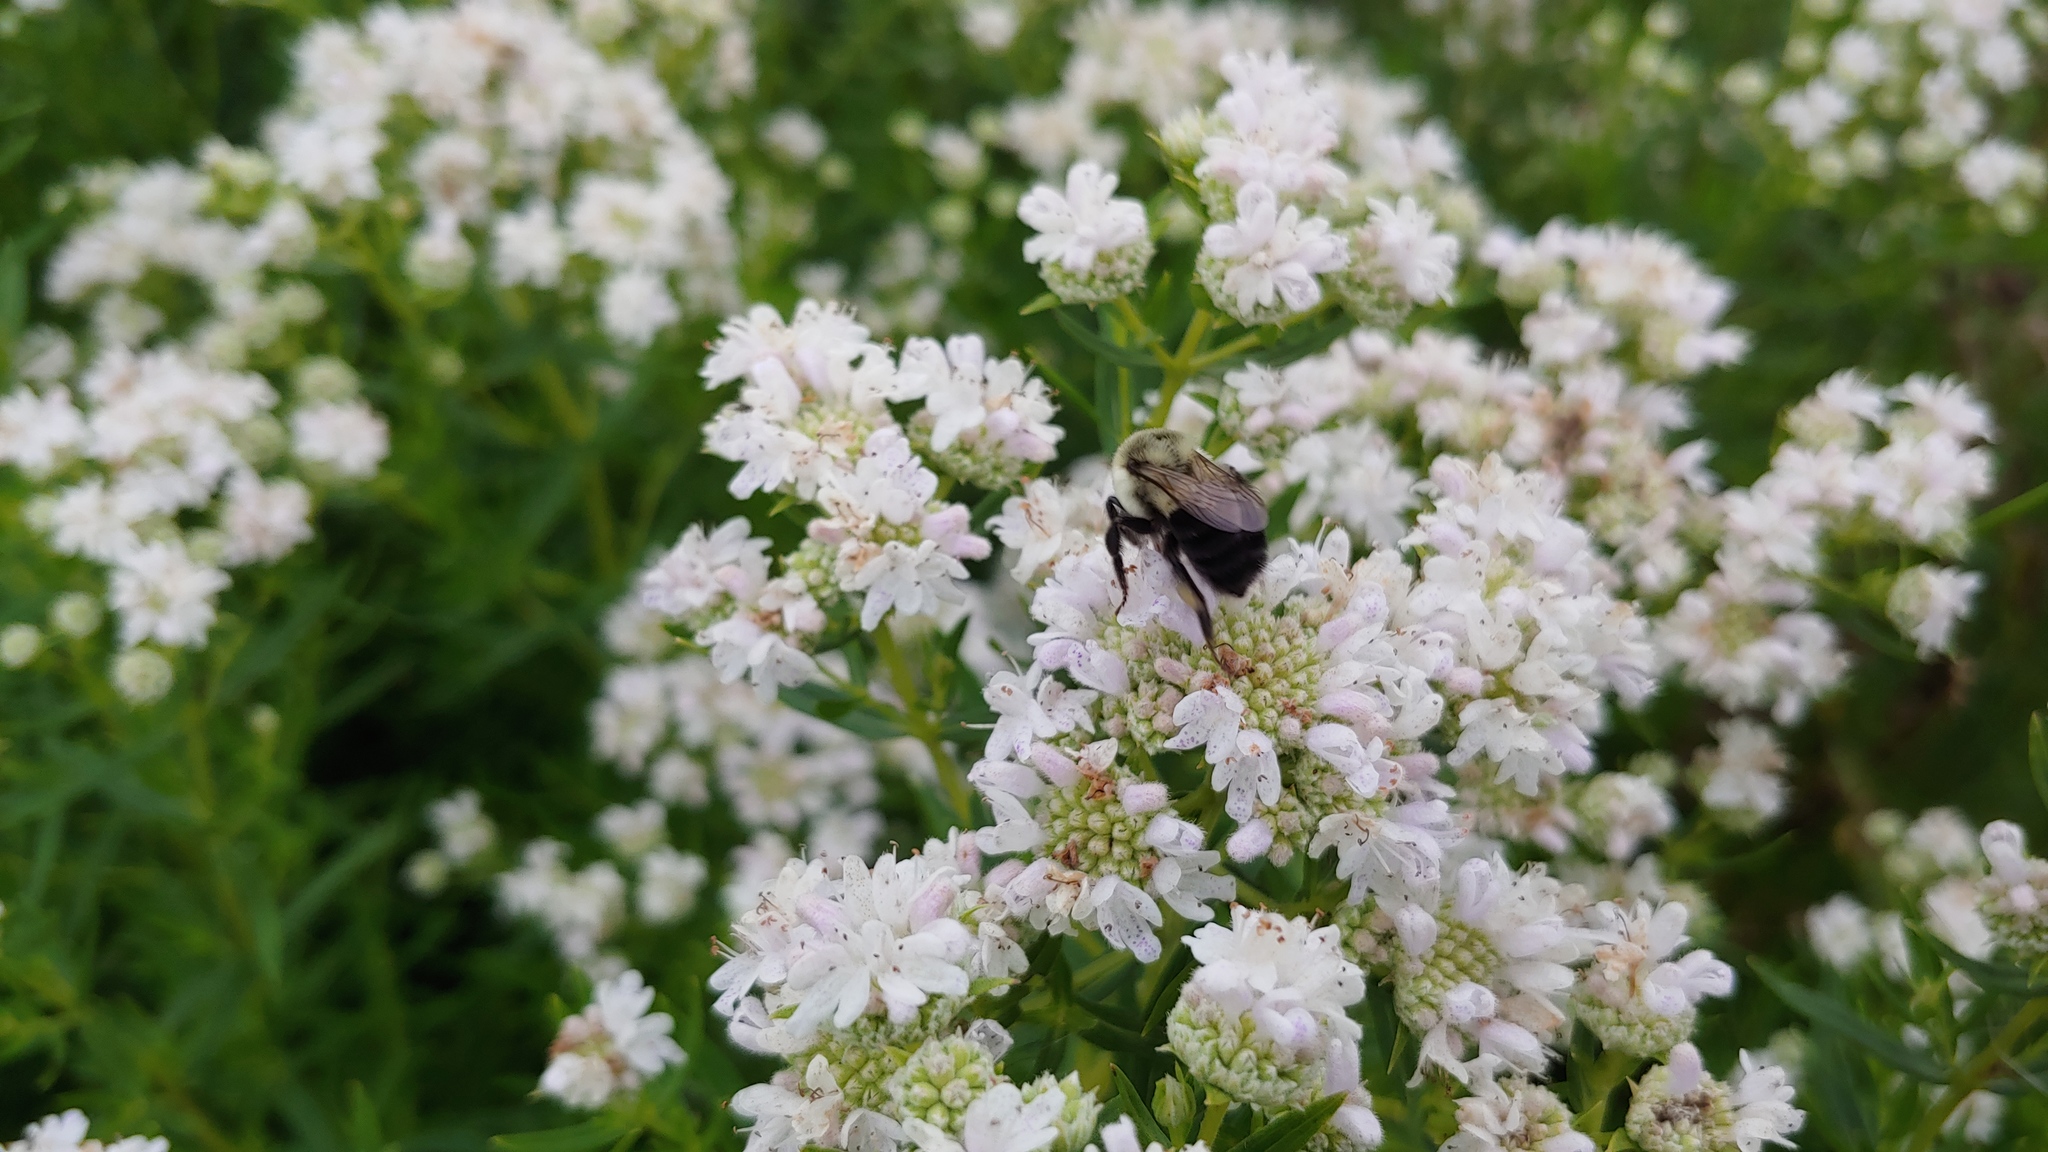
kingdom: Animalia
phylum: Arthropoda
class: Insecta
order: Hymenoptera
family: Apidae
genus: Bombus
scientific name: Bombus impatiens
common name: Common eastern bumble bee
